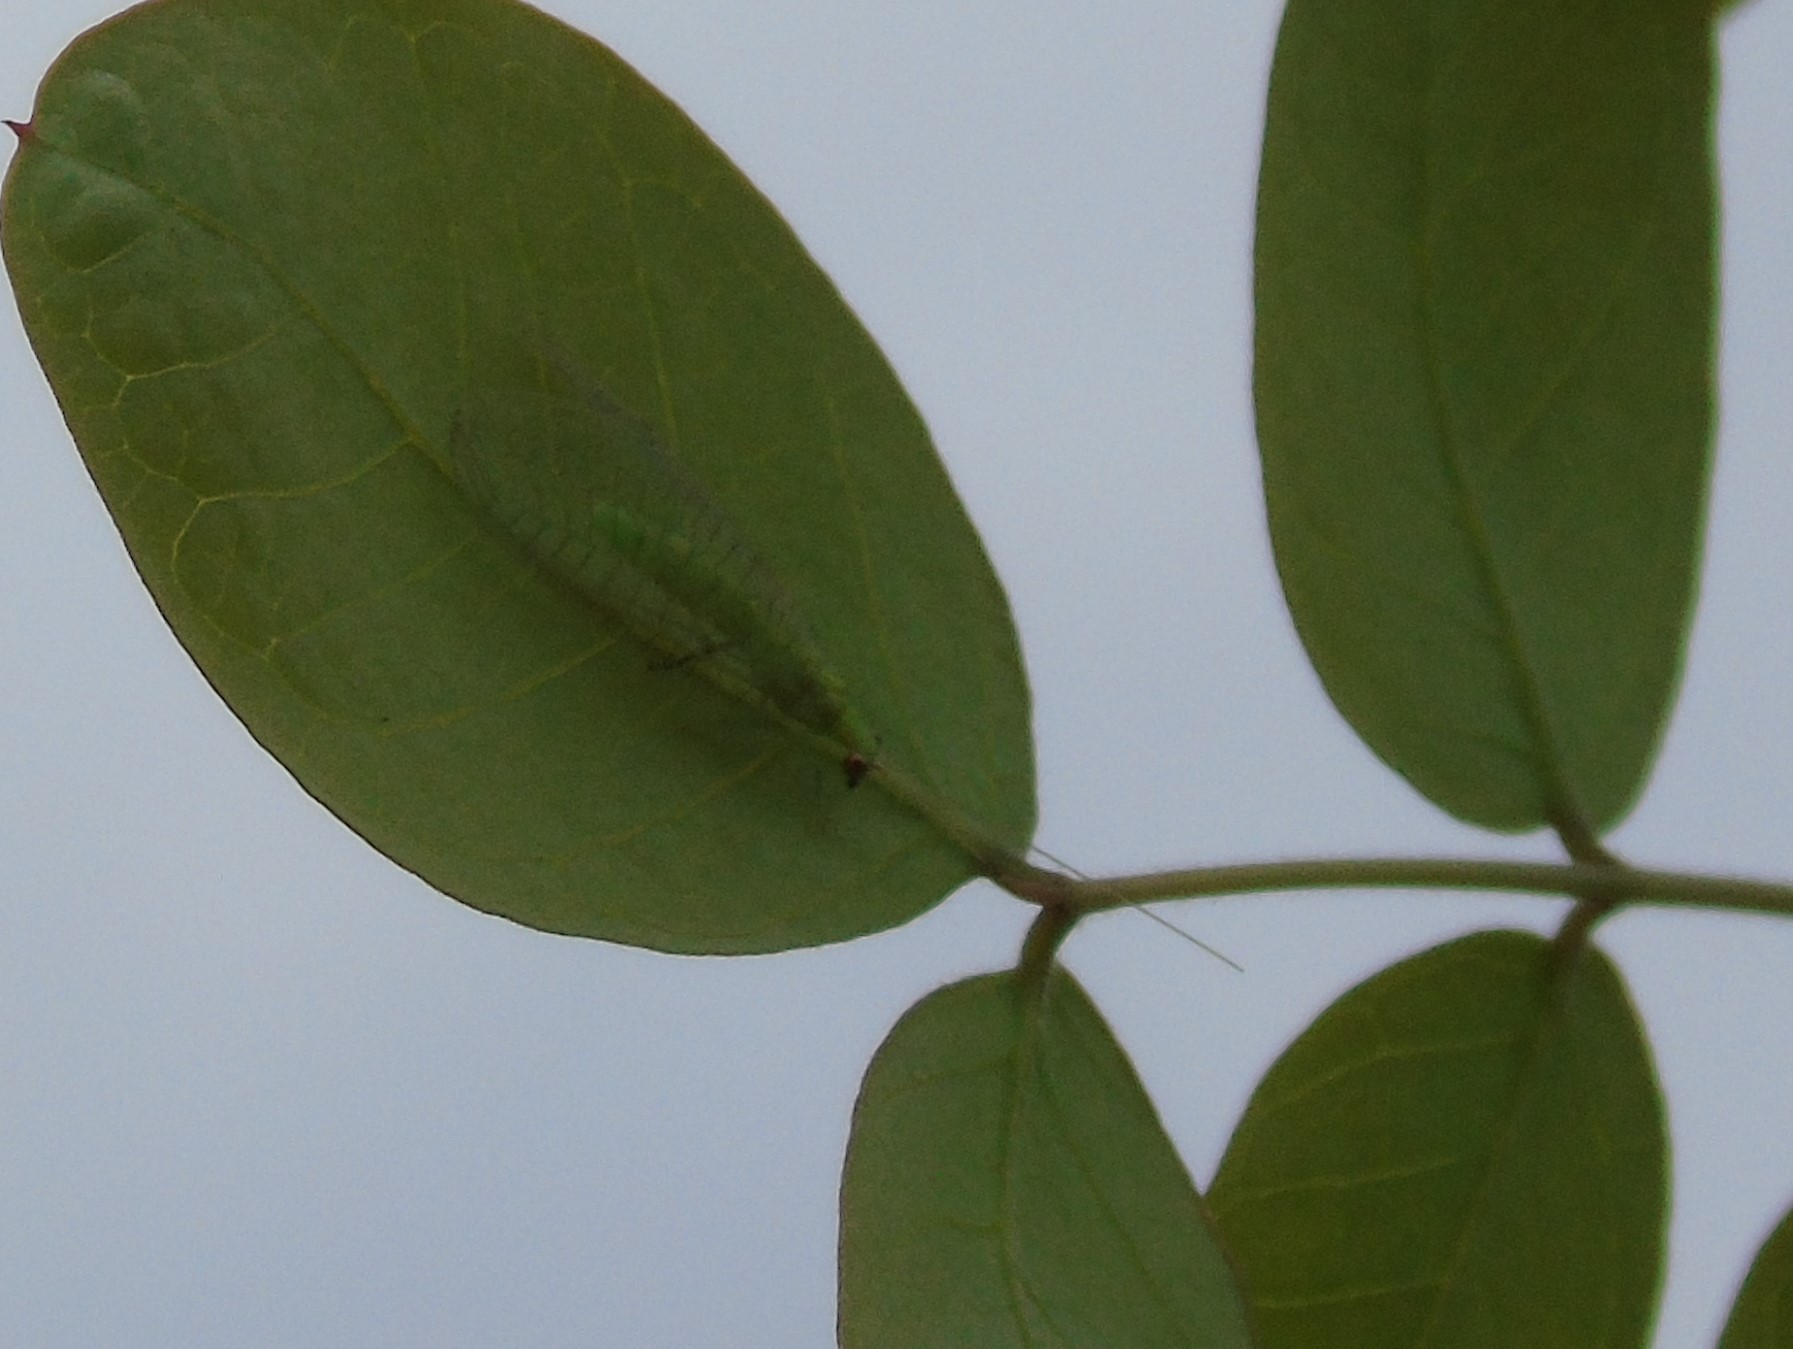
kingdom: Animalia
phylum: Arthropoda
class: Insecta
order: Neuroptera
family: Chrysopidae
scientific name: Chrysopidae
